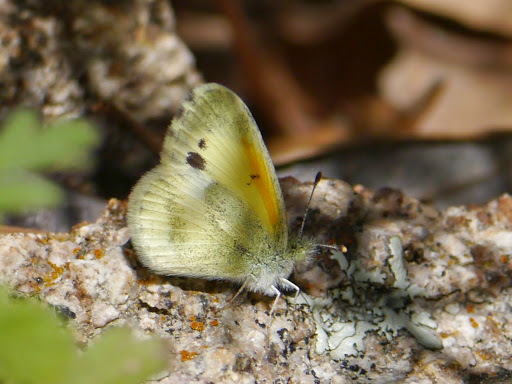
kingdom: Animalia
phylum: Arthropoda
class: Insecta
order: Lepidoptera
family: Pieridae
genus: Nathalis
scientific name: Nathalis iole
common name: Dainty sulphur
